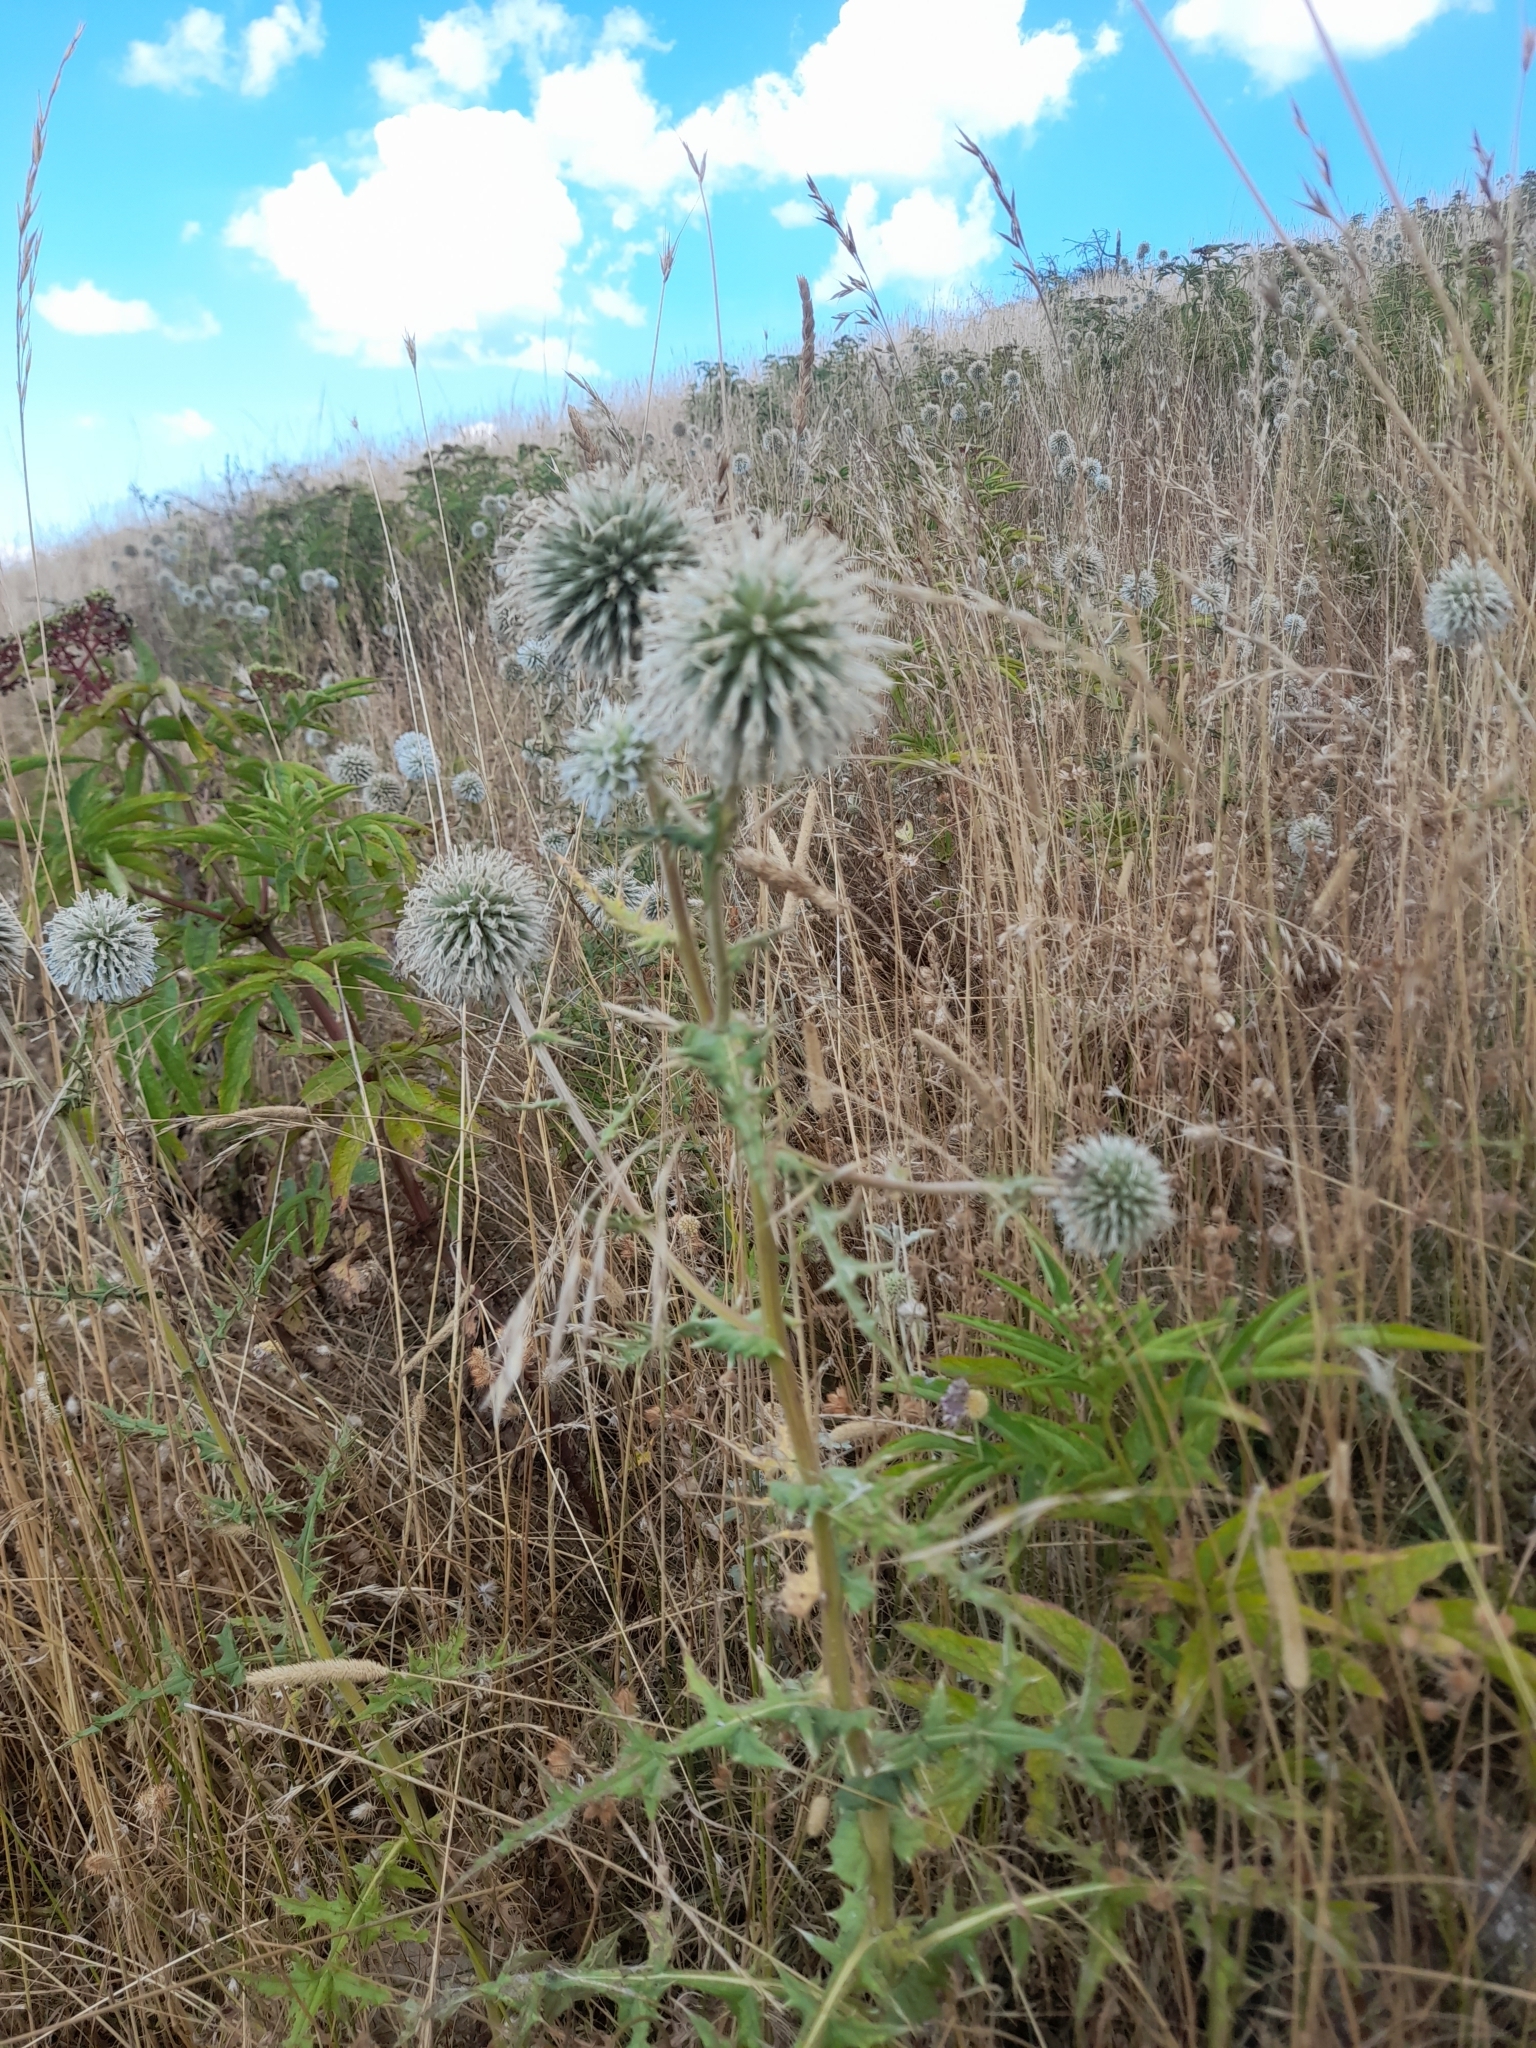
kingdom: Plantae
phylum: Tracheophyta
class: Magnoliopsida
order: Asterales
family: Asteraceae
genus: Echinops
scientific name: Echinops sphaerocephalus
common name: Glandular globe-thistle
